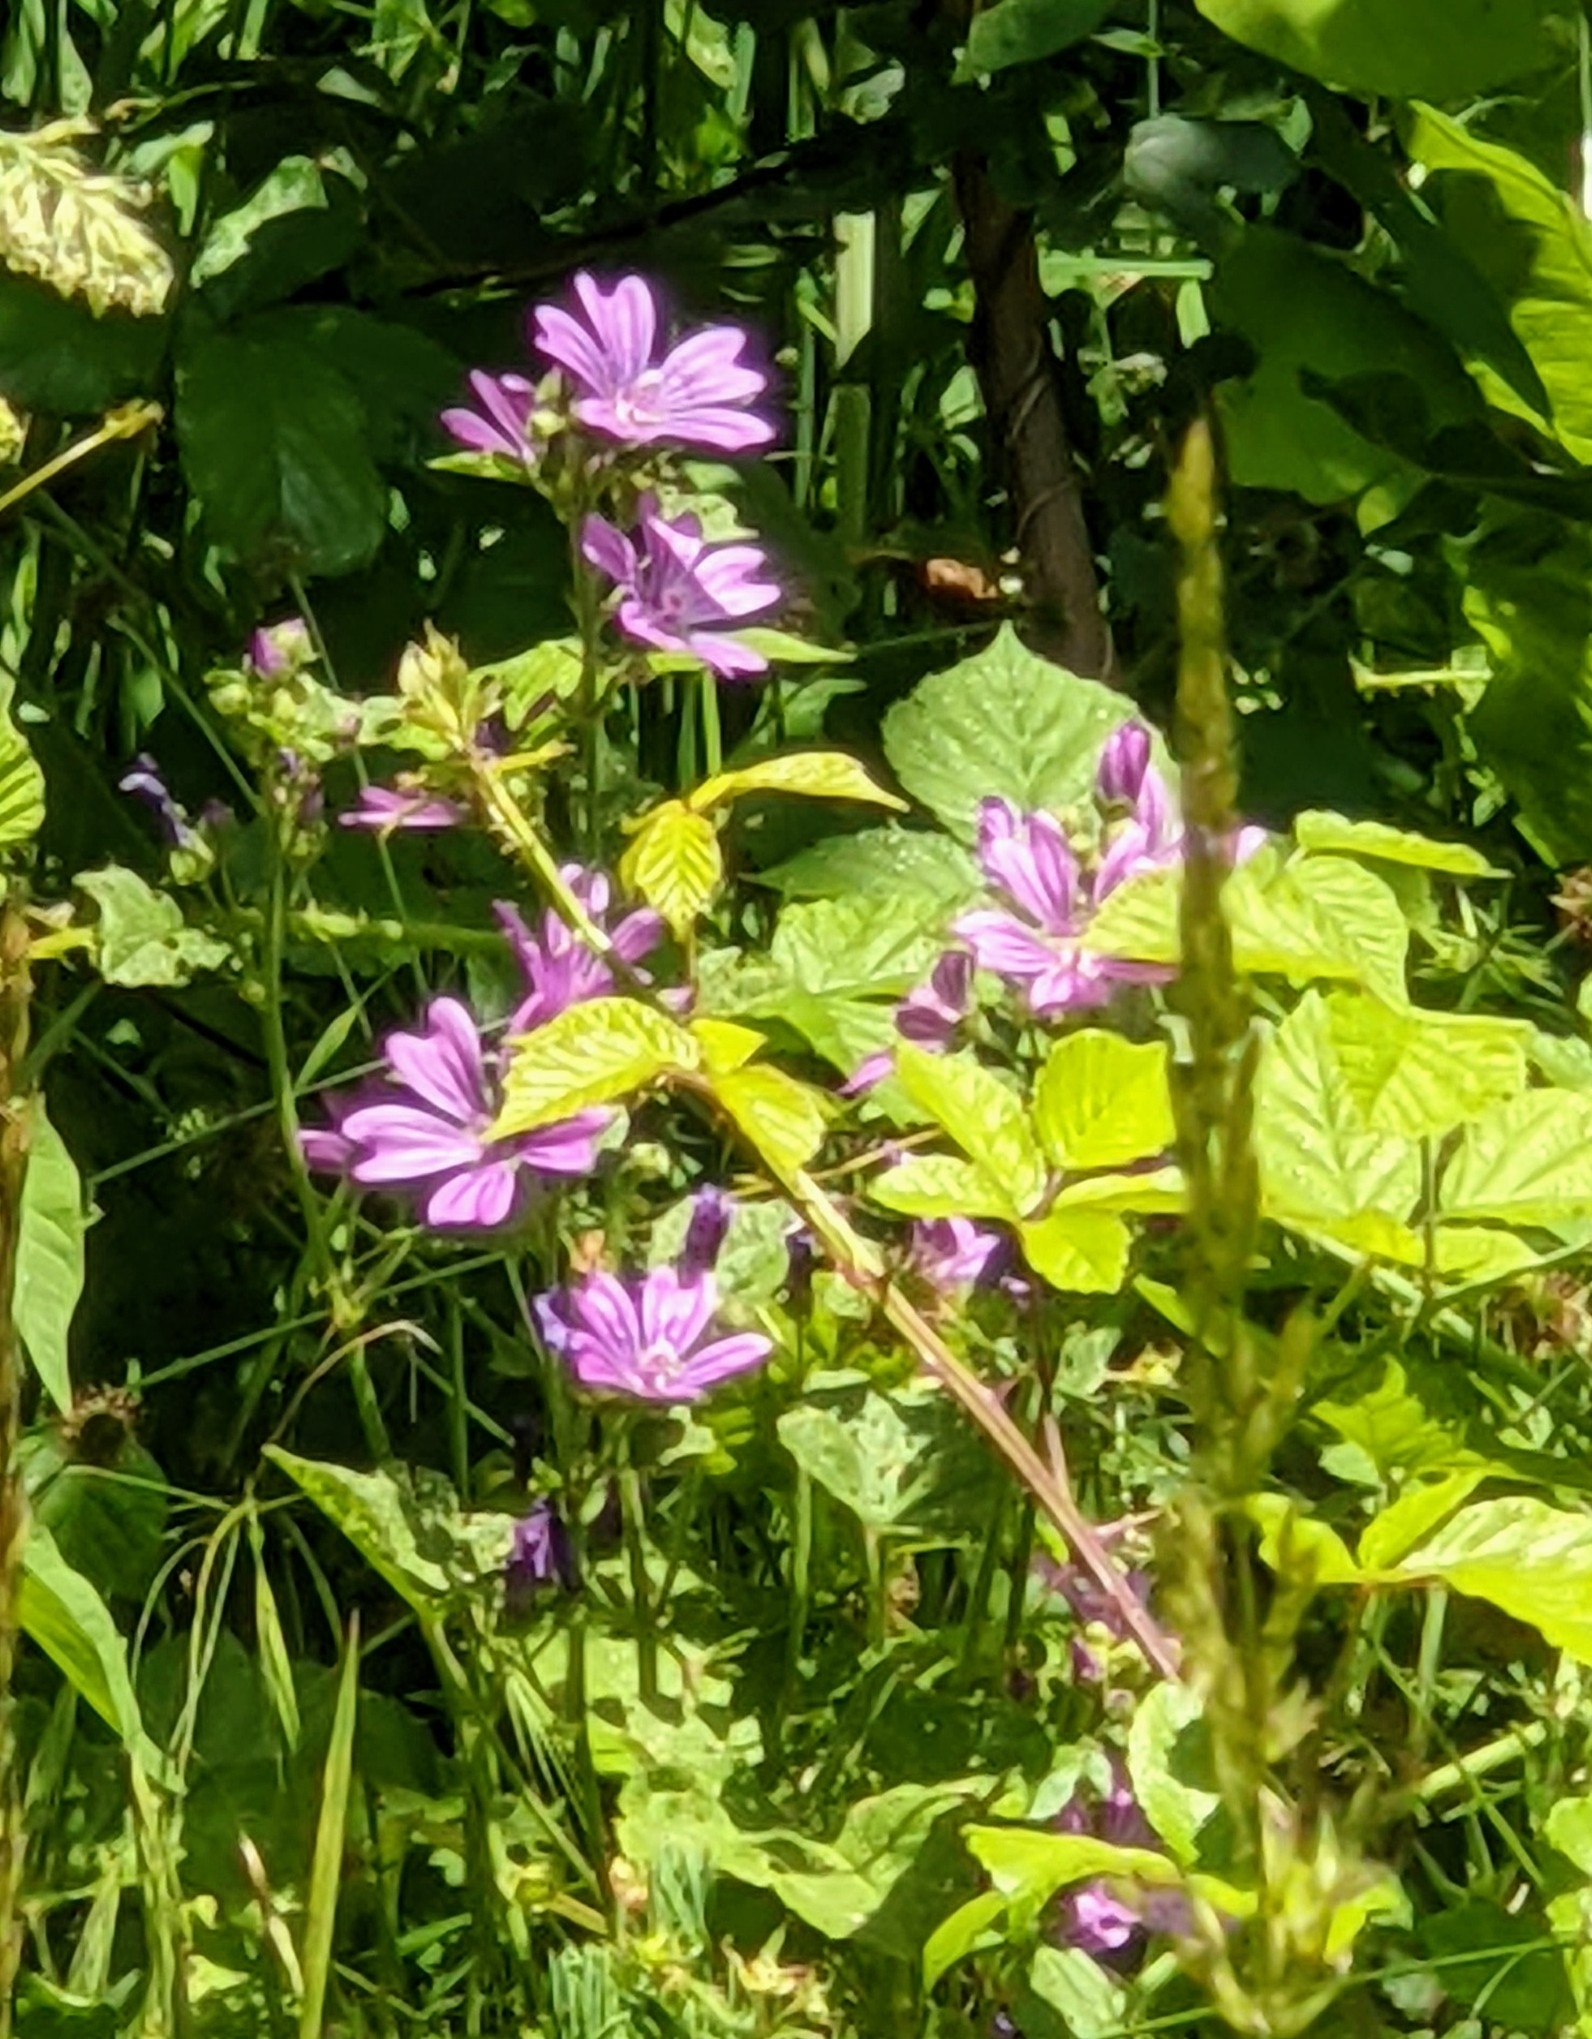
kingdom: Plantae
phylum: Tracheophyta
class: Magnoliopsida
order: Malvales
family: Malvaceae
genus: Malva
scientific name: Malva sylvestris
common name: Common mallow
